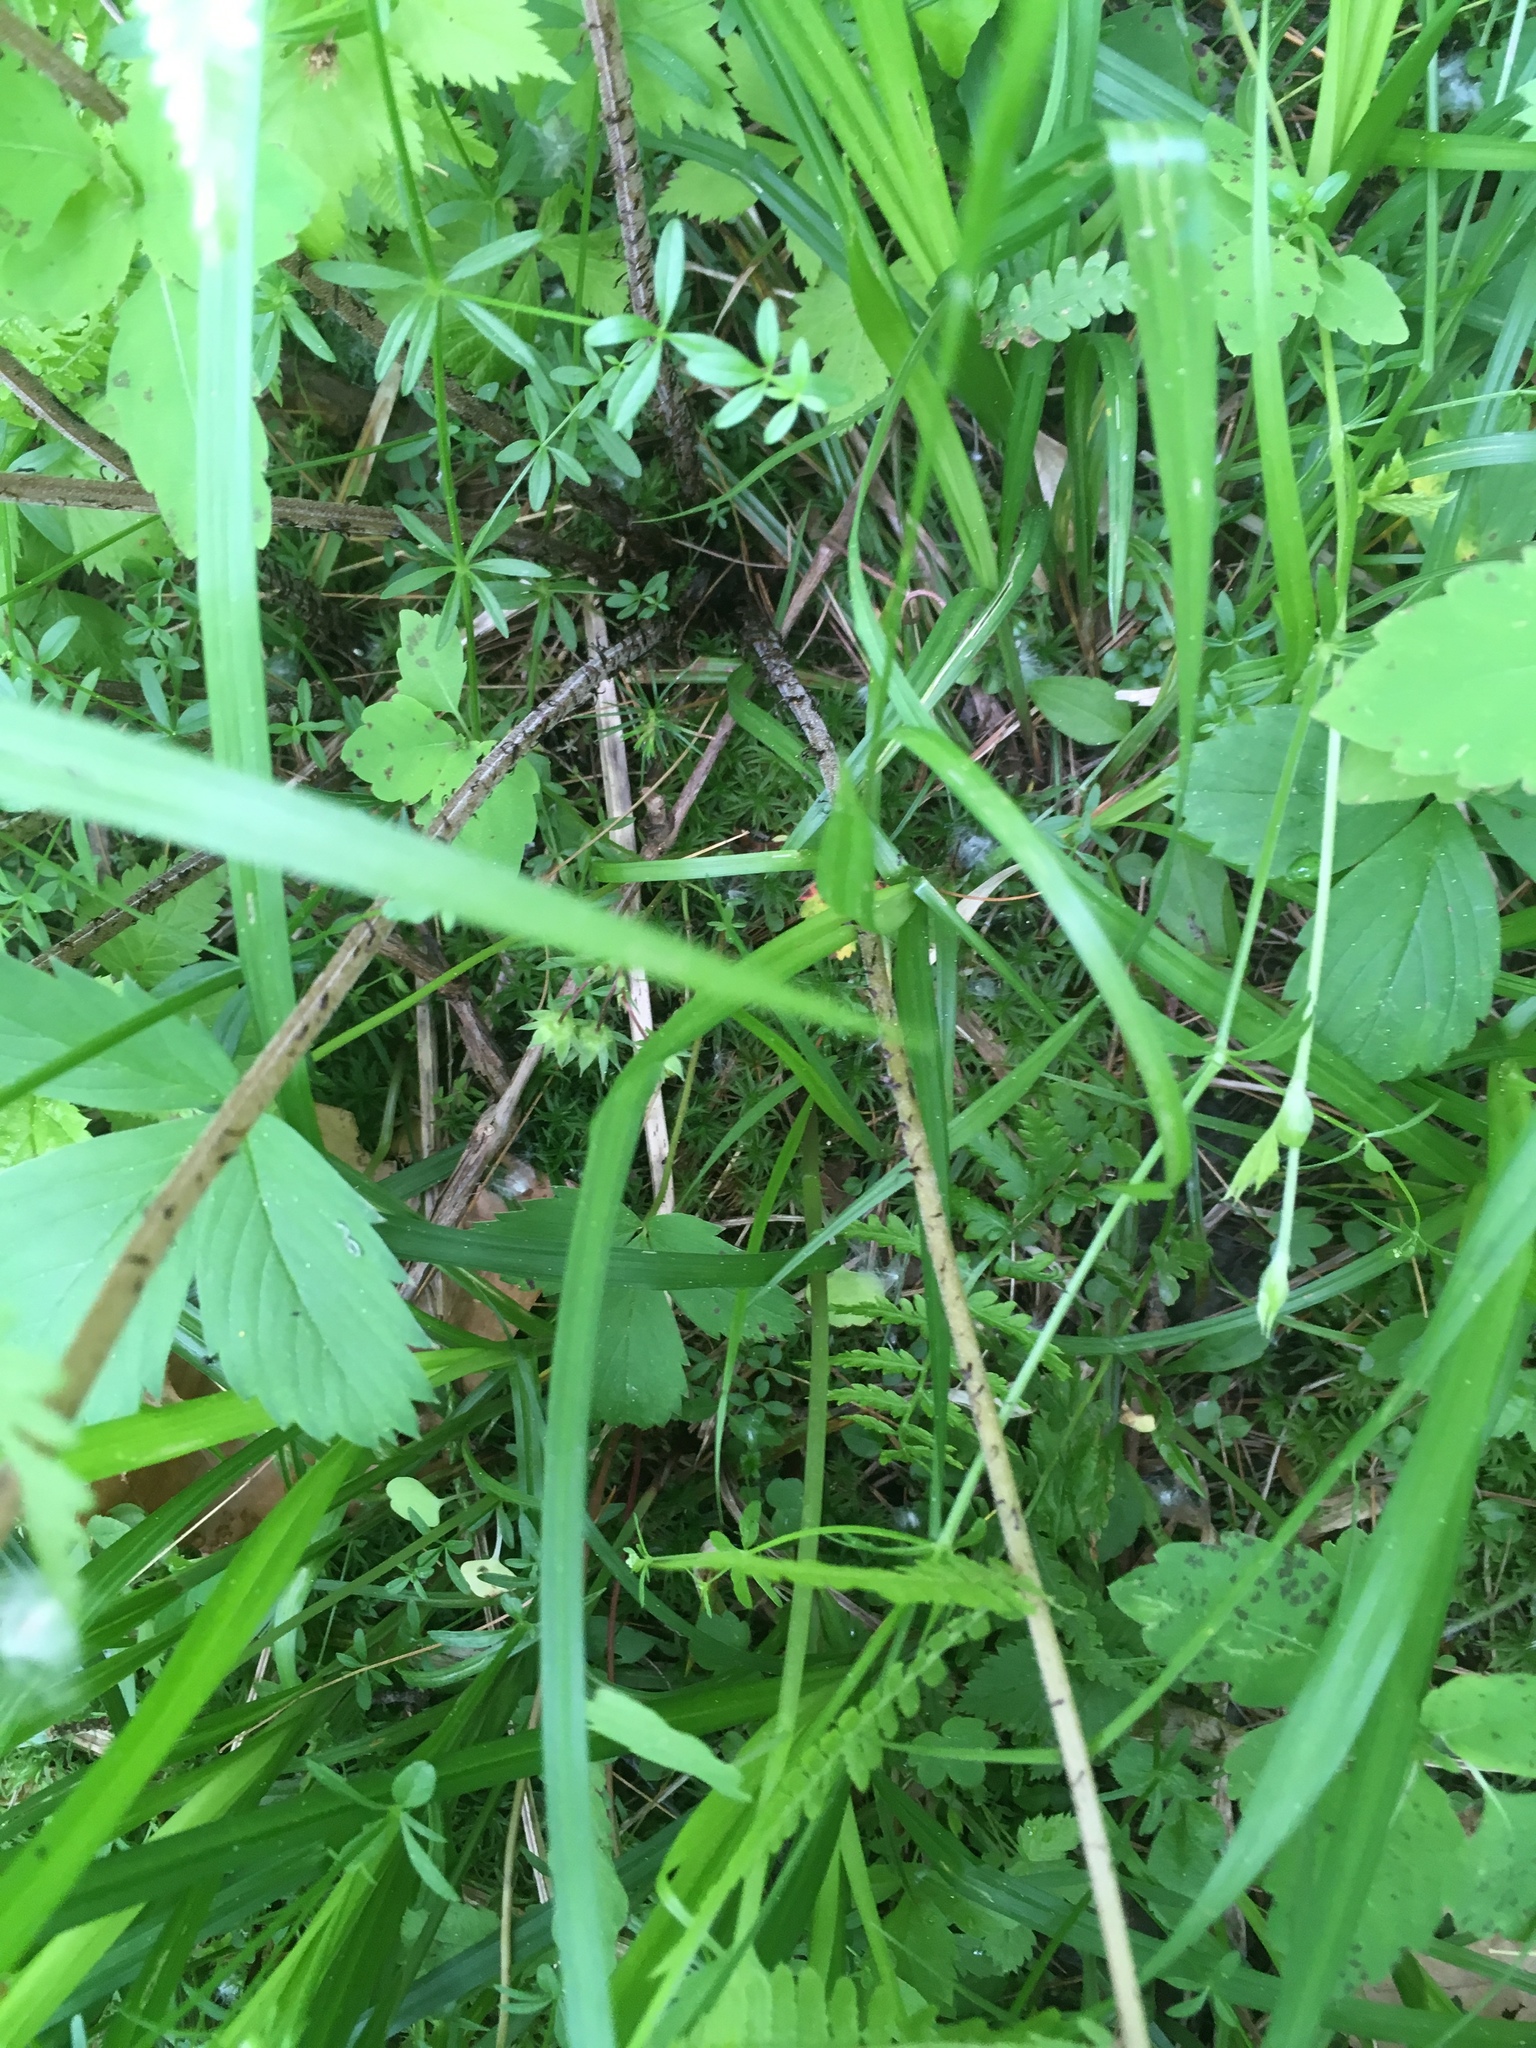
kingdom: Plantae
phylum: Tracheophyta
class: Polypodiopsida
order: Polypodiales
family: Athyriaceae
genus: Athyrium
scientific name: Athyrium angustum
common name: Northern lady fern
